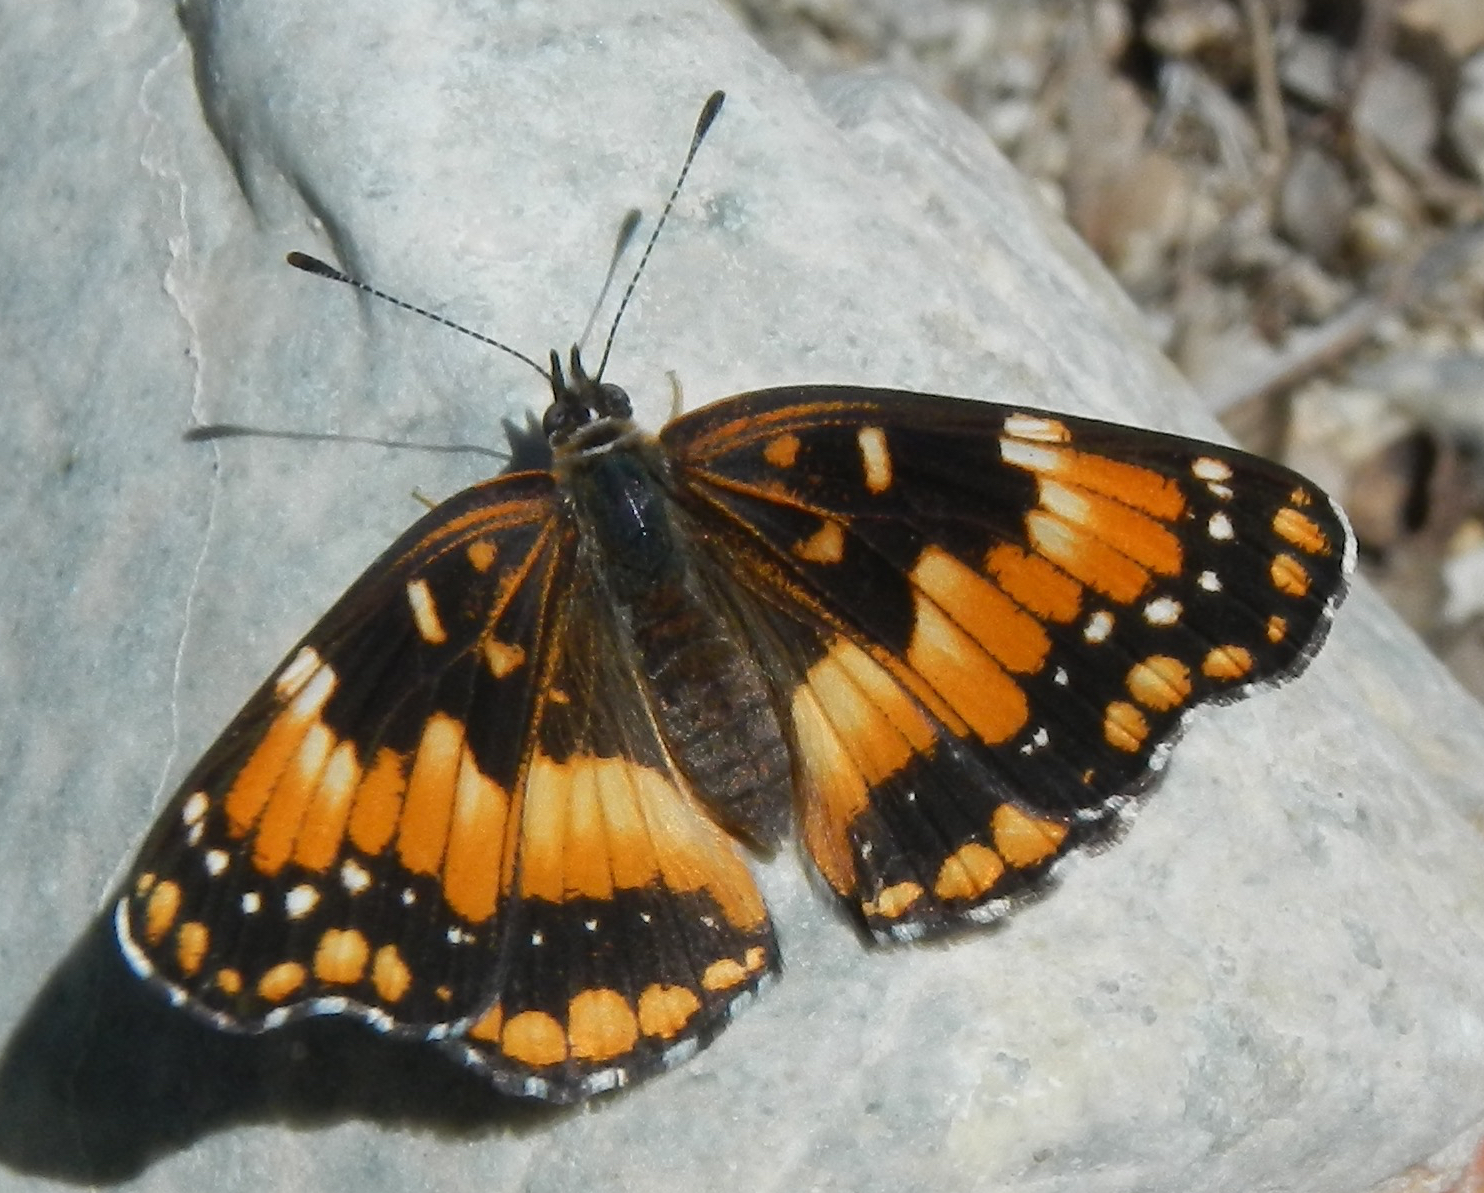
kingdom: Animalia
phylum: Arthropoda
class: Insecta
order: Lepidoptera
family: Nymphalidae
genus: Chlosyne
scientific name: Chlosyne californica
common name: California patch
